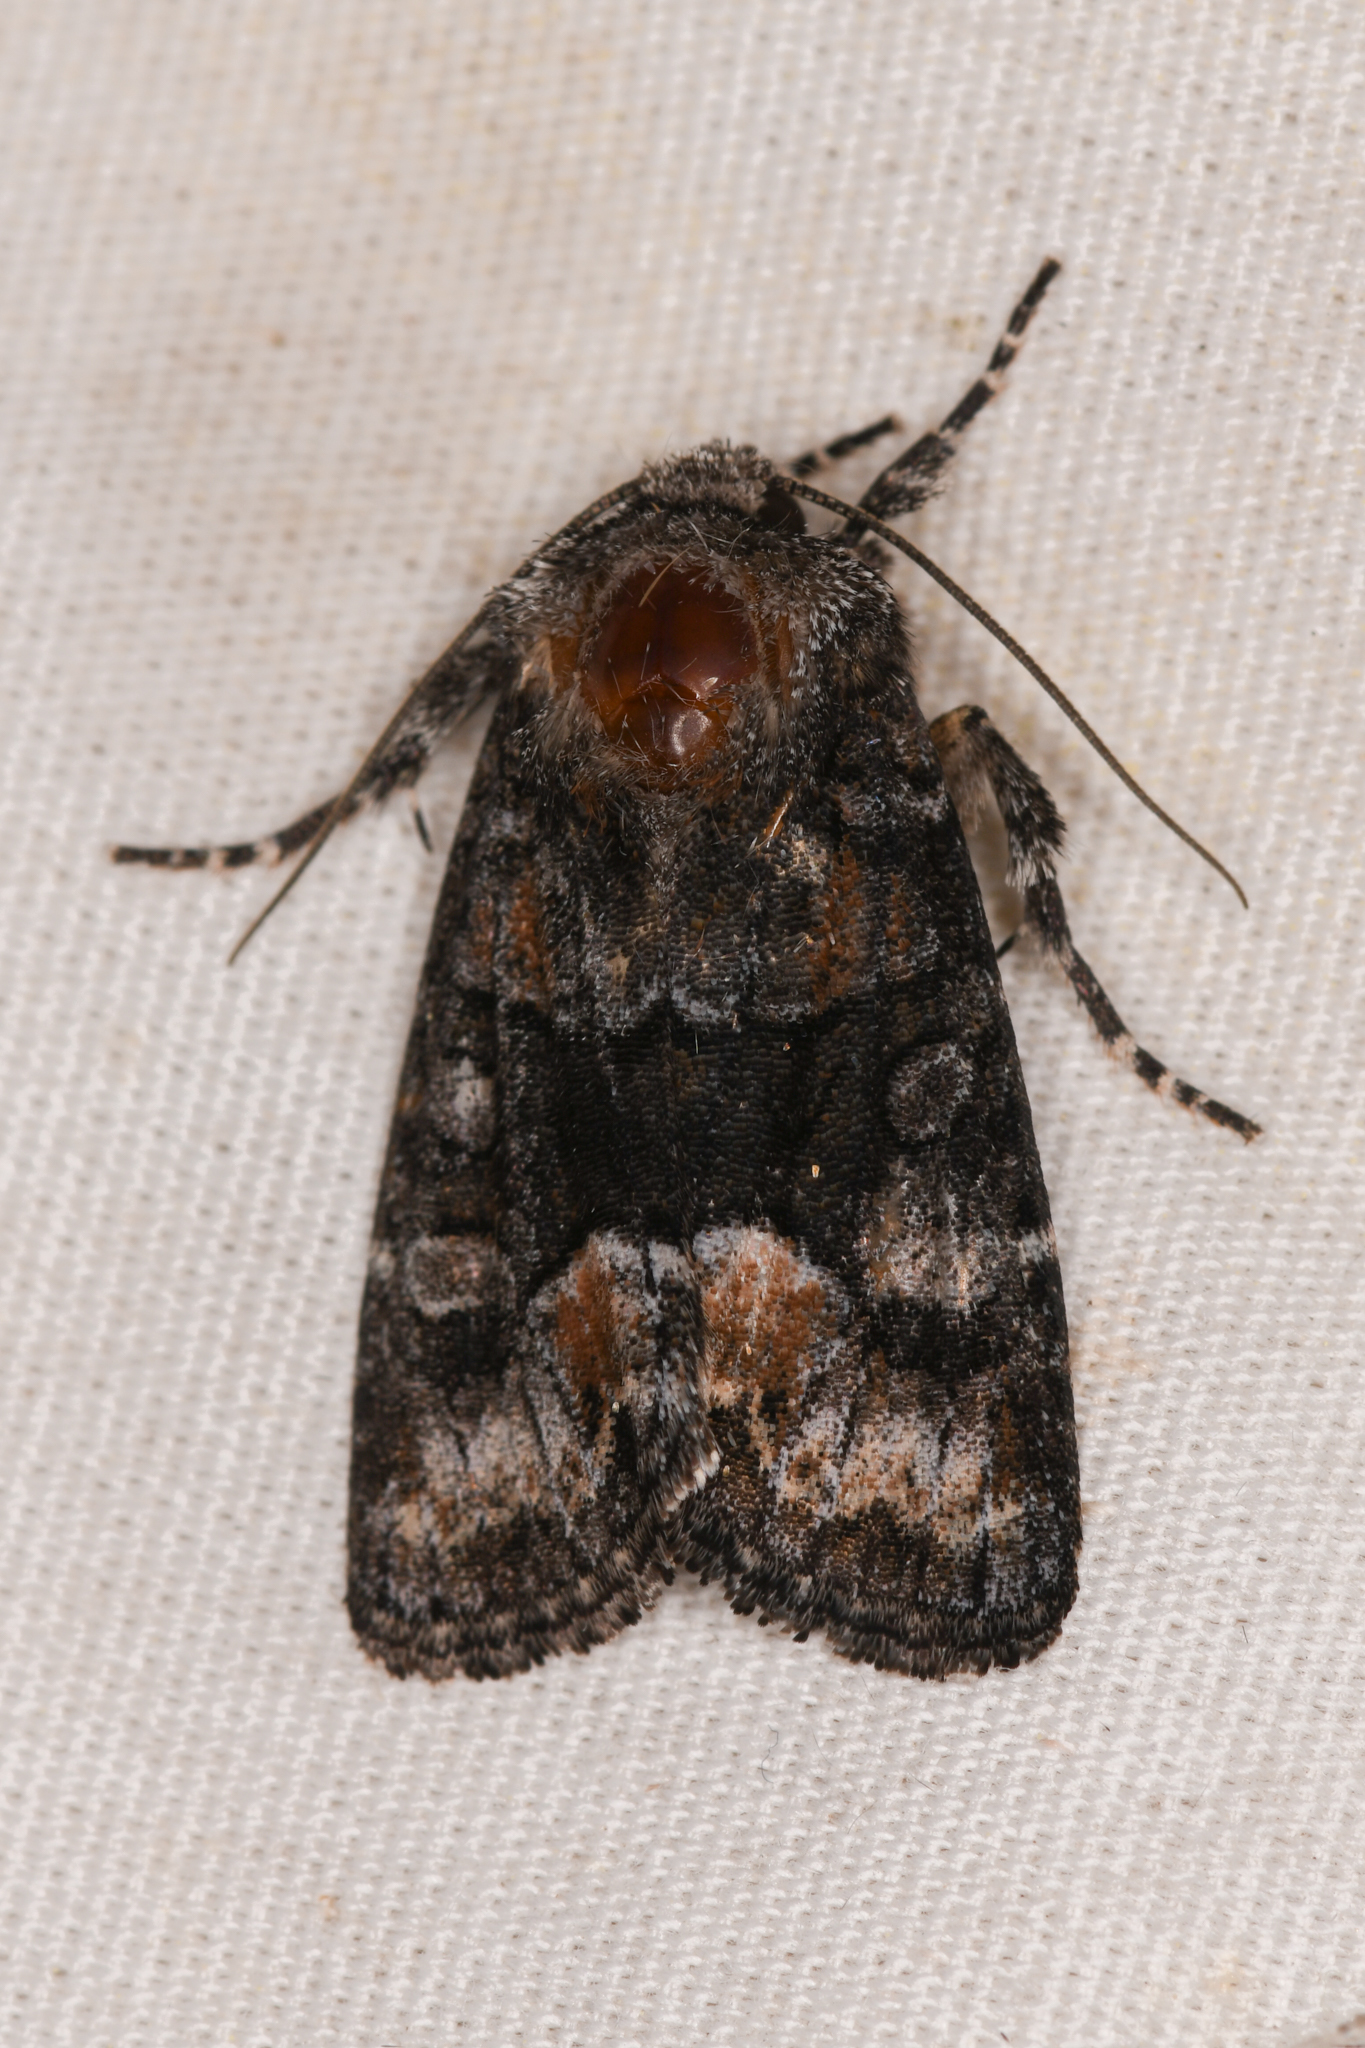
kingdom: Animalia
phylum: Arthropoda
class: Insecta
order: Lepidoptera
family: Noctuidae
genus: Lacinipolia
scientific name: Lacinipolia davena
